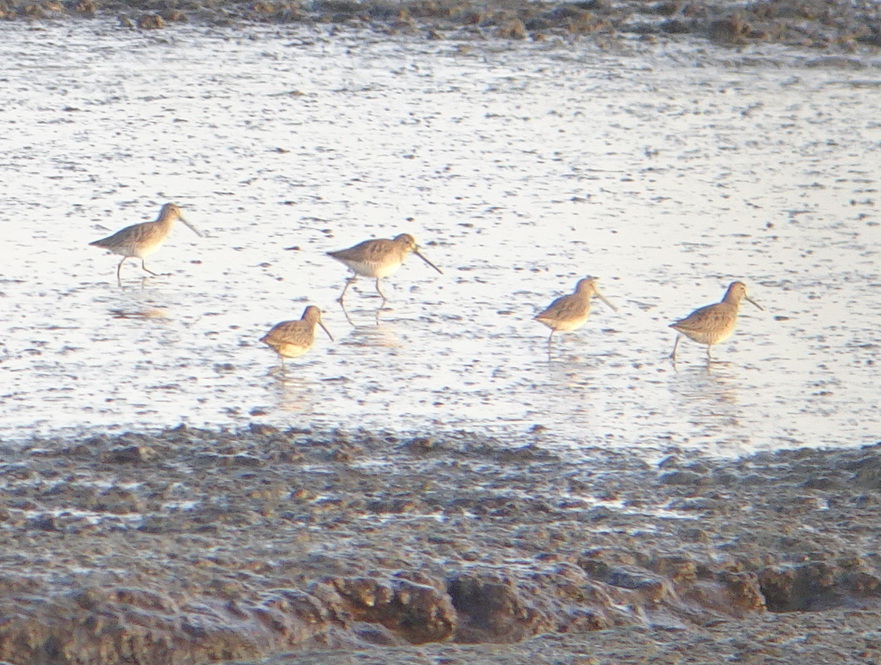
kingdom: Animalia
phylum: Chordata
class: Aves
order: Charadriiformes
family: Scolopacidae
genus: Limnodromus
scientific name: Limnodromus scolopaceus
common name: Long-billed dowitcher
